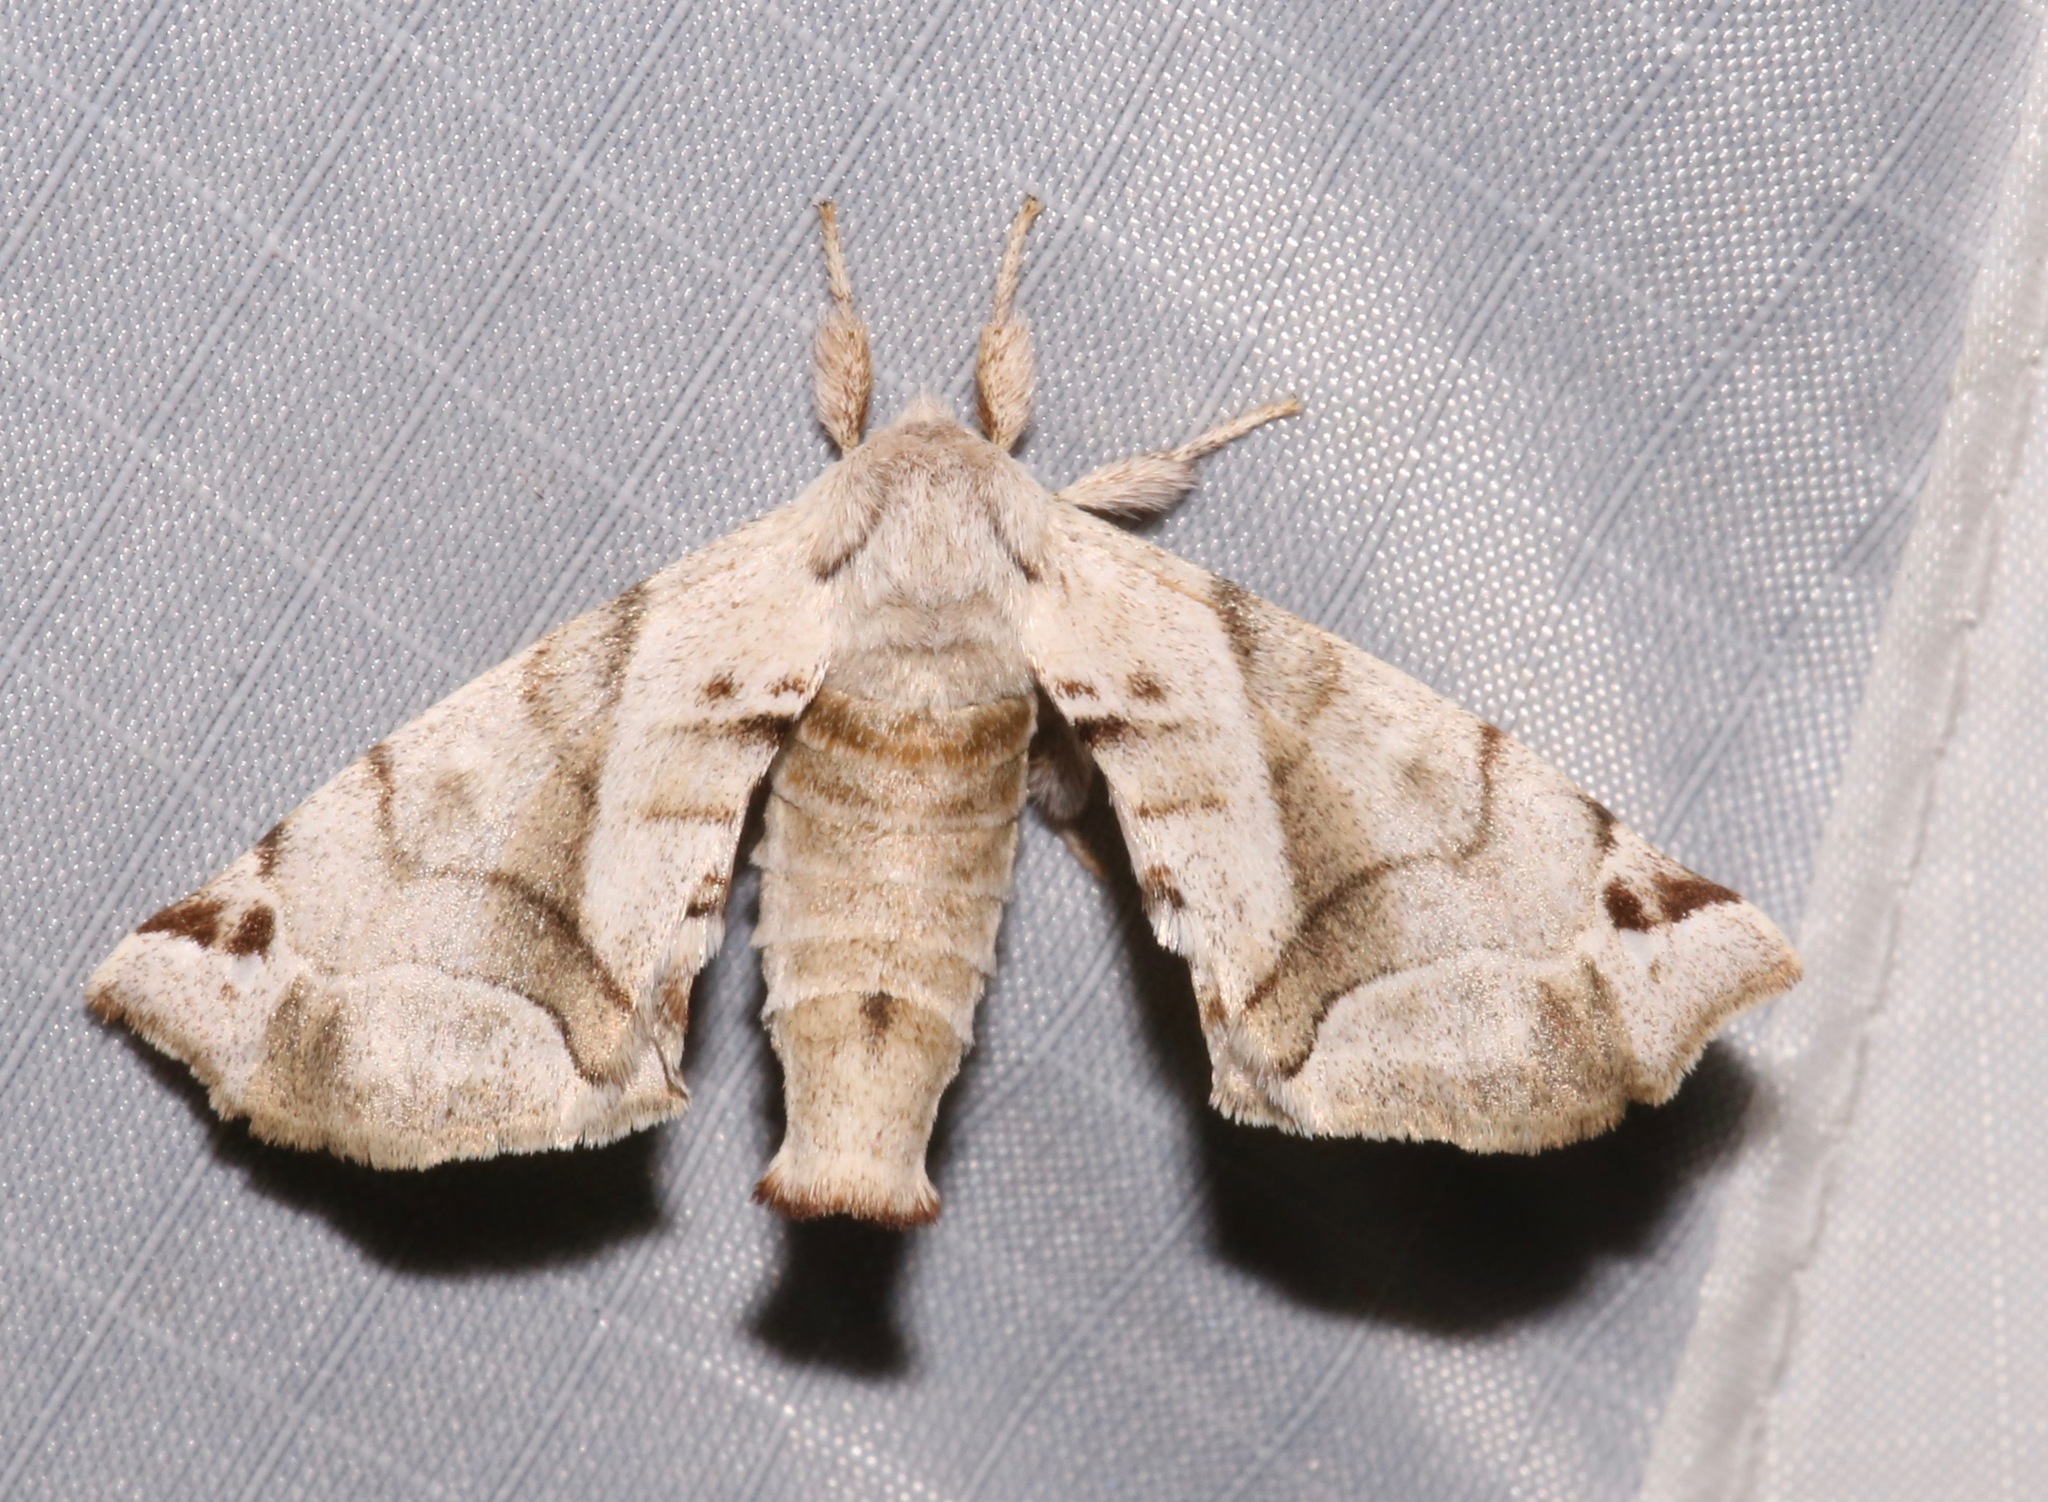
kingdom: Animalia
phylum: Arthropoda
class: Insecta
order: Lepidoptera
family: Apatelodidae
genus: Hygrochroa
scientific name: Hygrochroa Apatelodes pudefacta
